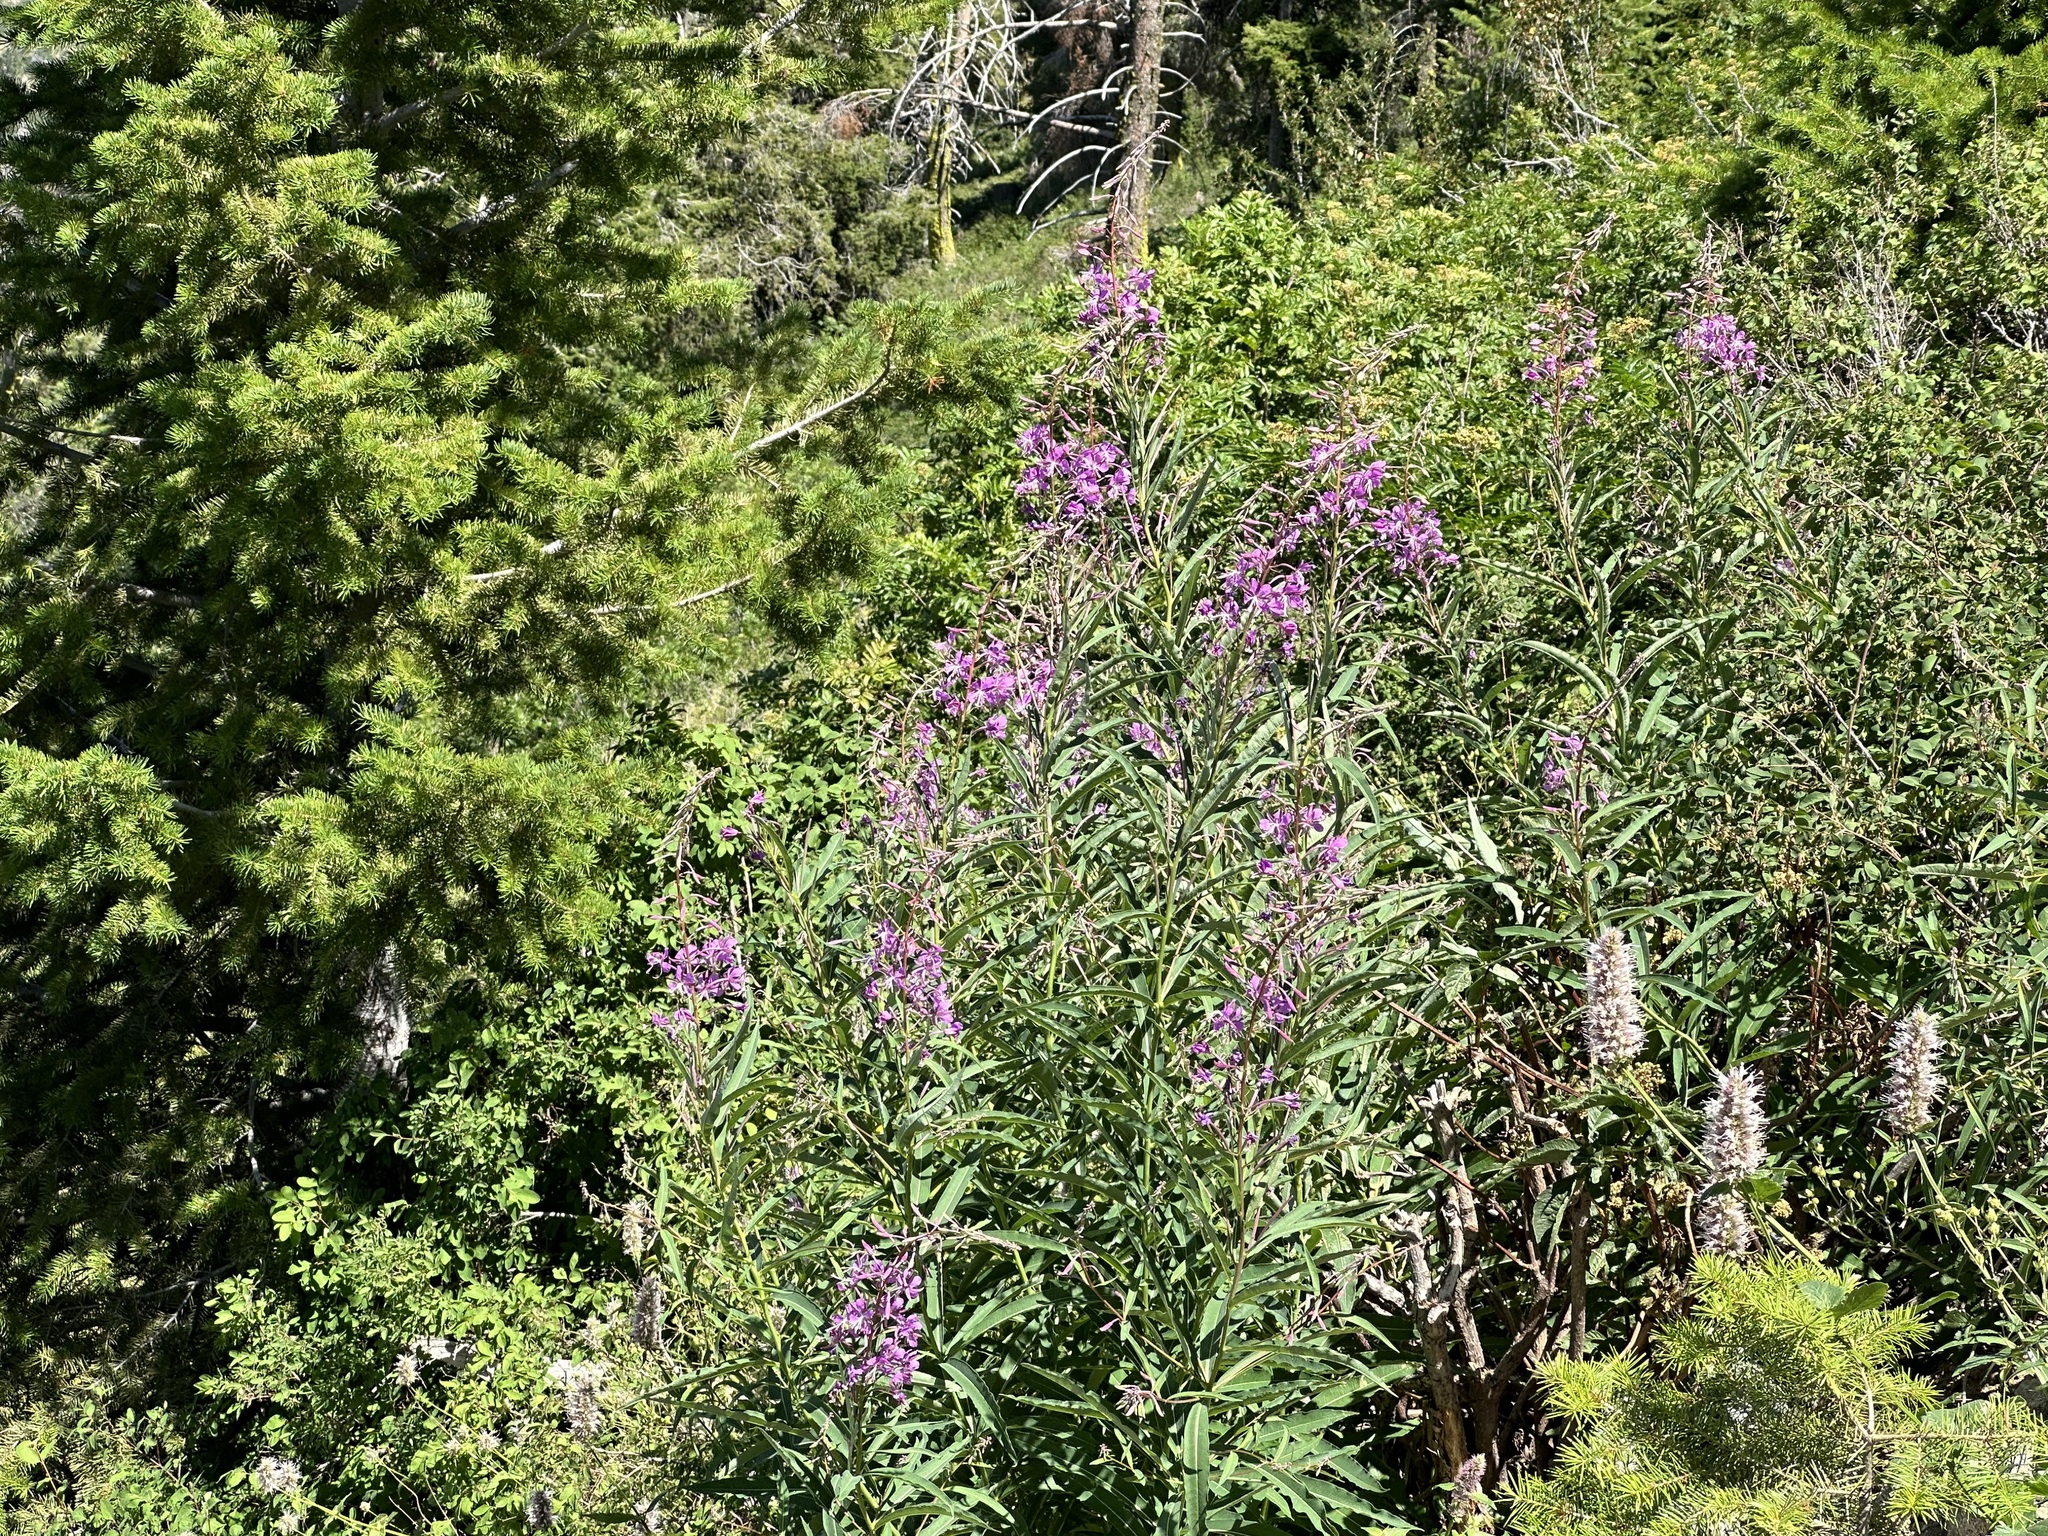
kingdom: Plantae
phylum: Tracheophyta
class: Magnoliopsida
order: Myrtales
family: Onagraceae
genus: Chamaenerion
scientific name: Chamaenerion angustifolium
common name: Fireweed
